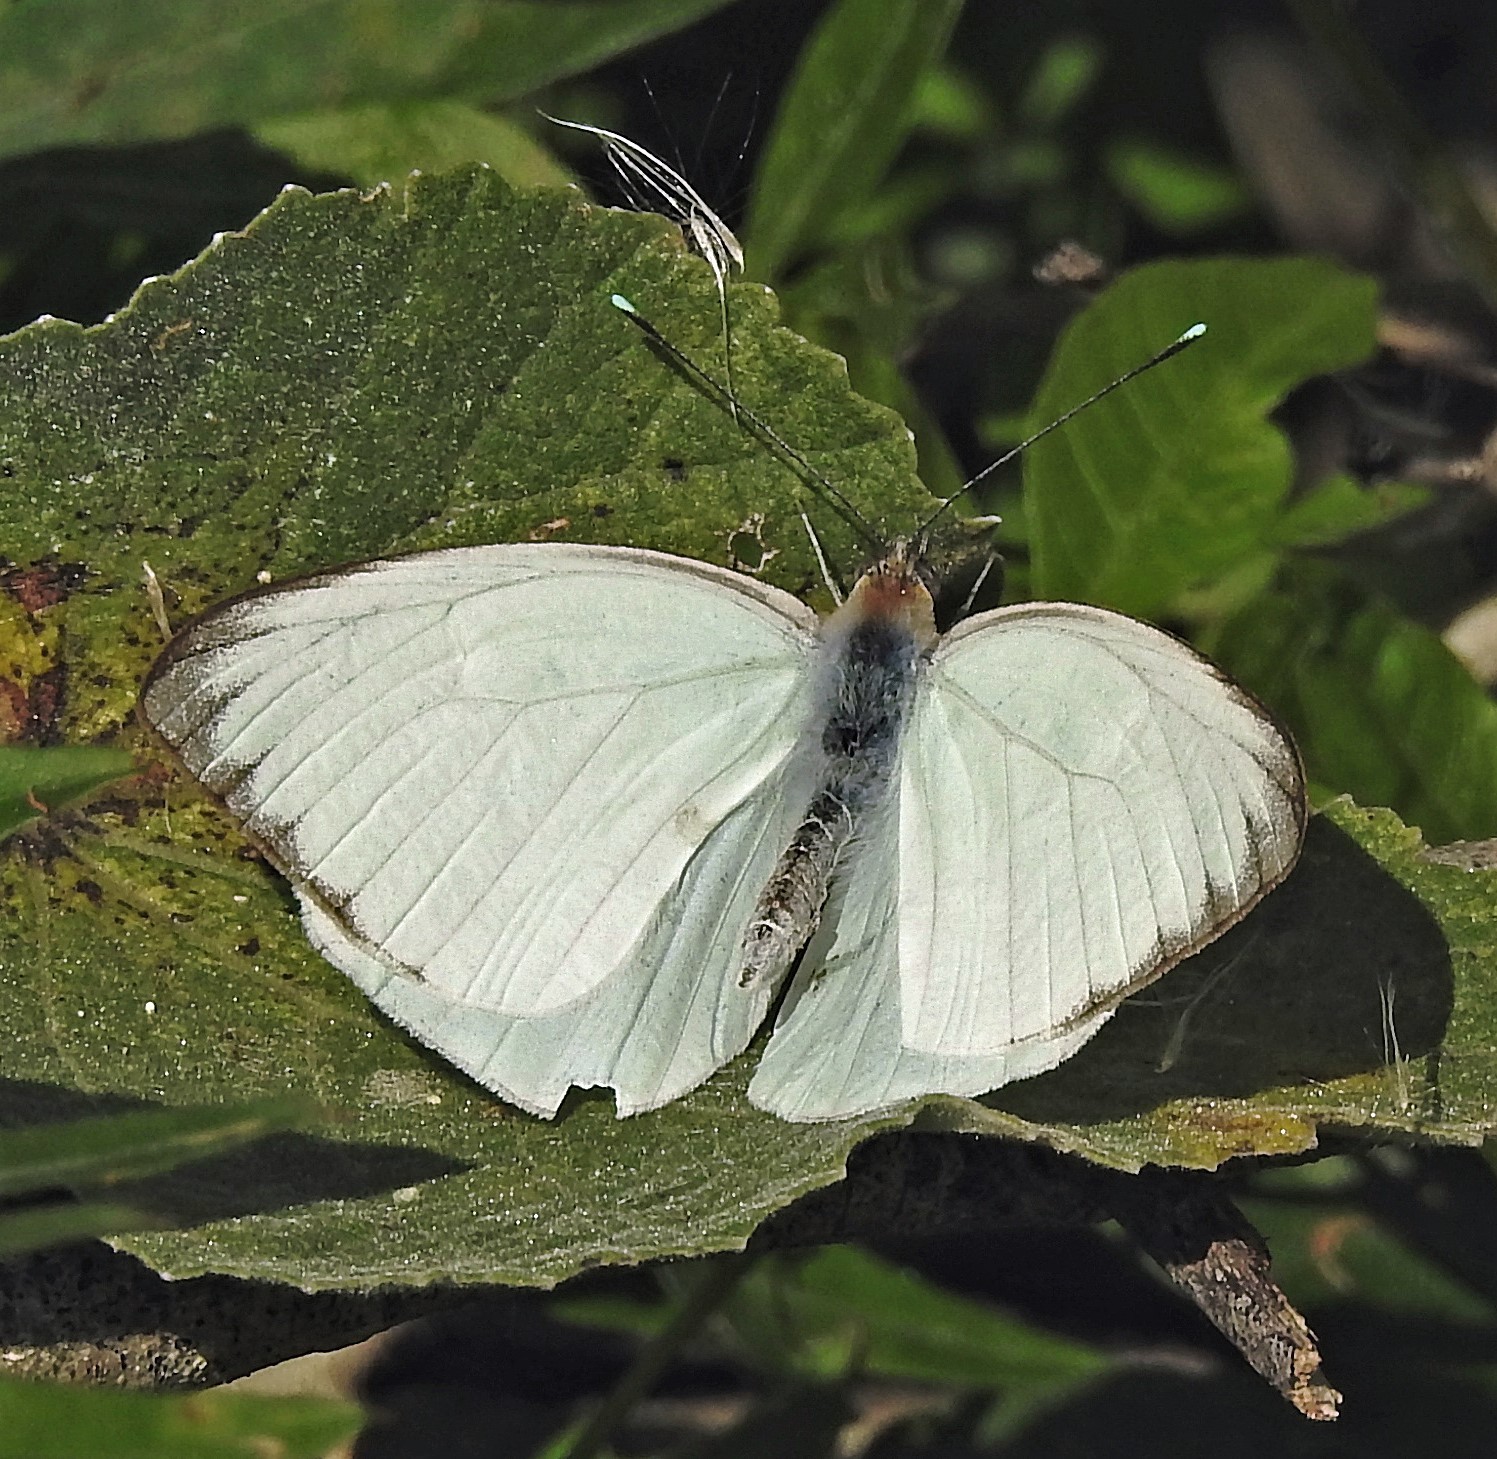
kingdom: Animalia
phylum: Arthropoda
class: Insecta
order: Lepidoptera
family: Pieridae
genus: Ascia
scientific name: Ascia monuste
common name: Great southern white
